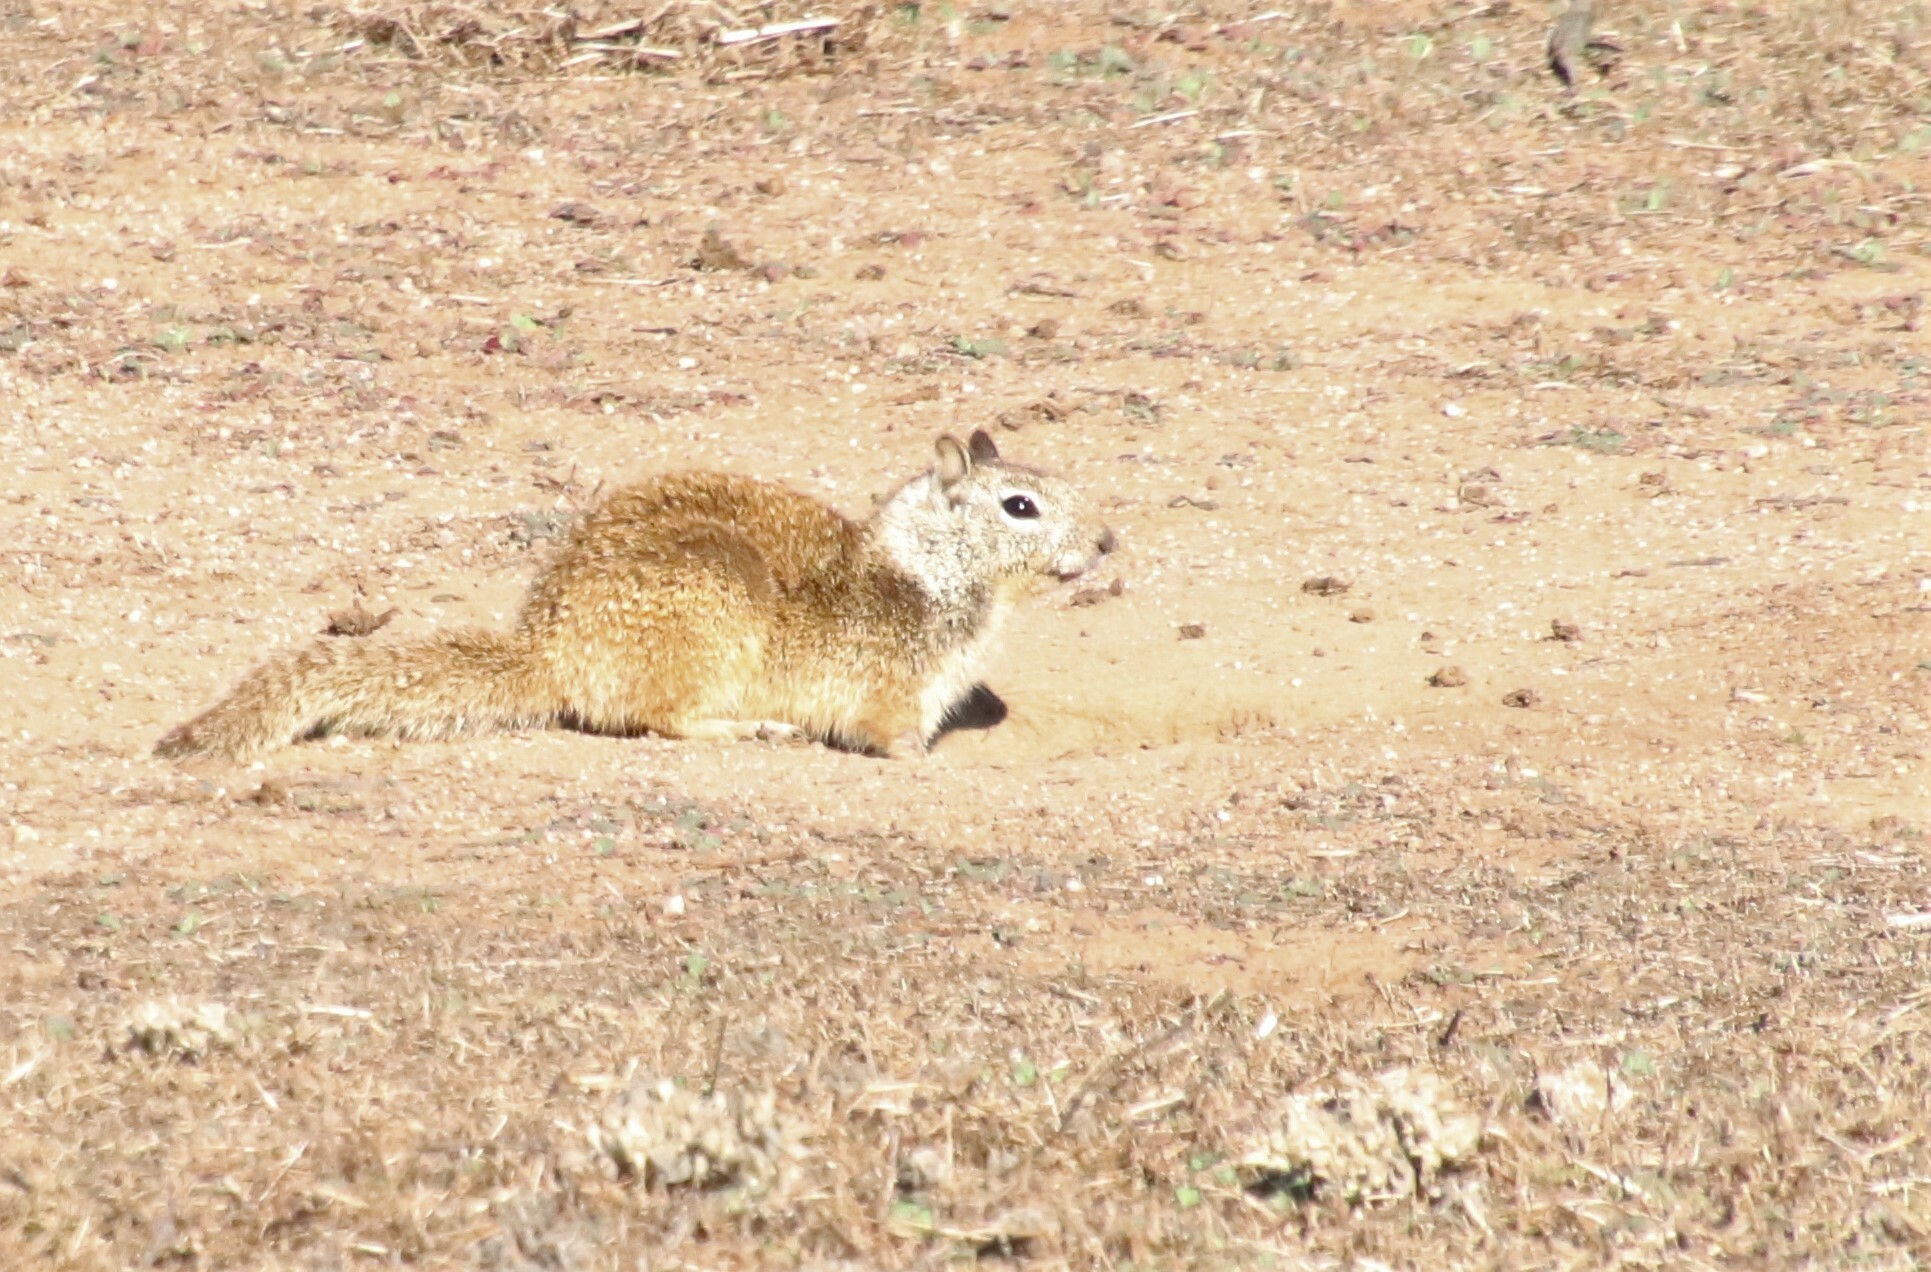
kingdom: Animalia
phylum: Chordata
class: Mammalia
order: Rodentia
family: Sciuridae
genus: Otospermophilus
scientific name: Otospermophilus beecheyi
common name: California ground squirrel
